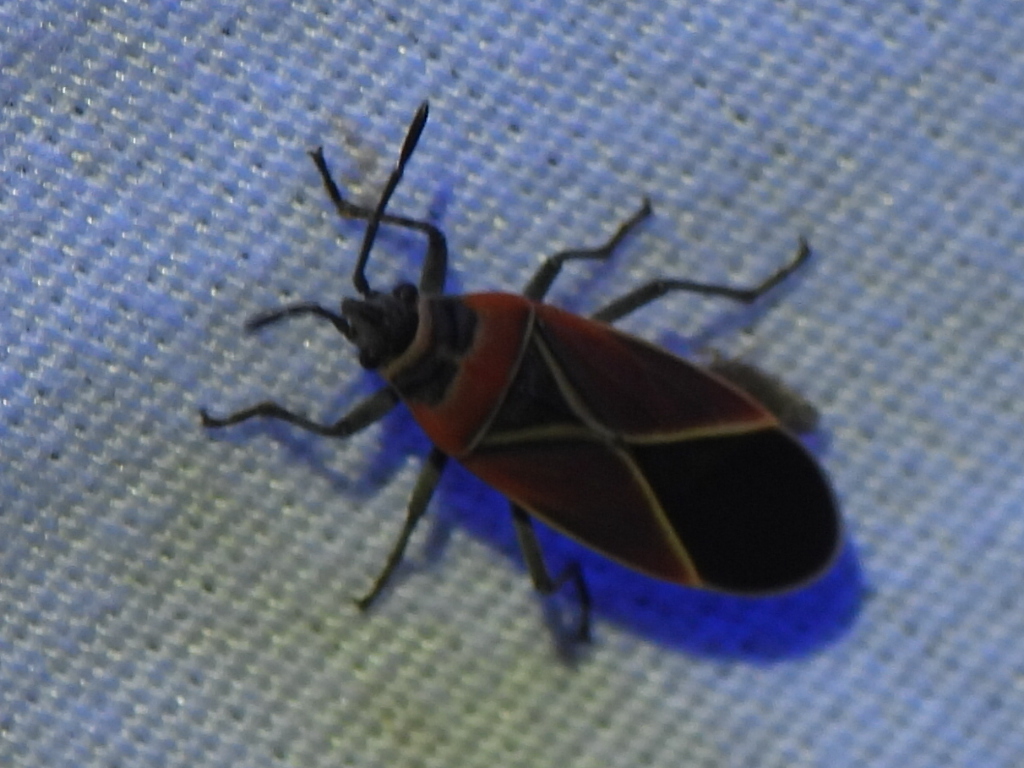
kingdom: Animalia
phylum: Arthropoda
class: Insecta
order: Hemiptera
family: Lygaeidae
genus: Neacoryphus
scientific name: Neacoryphus bicrucis
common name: Lygaeid bug
